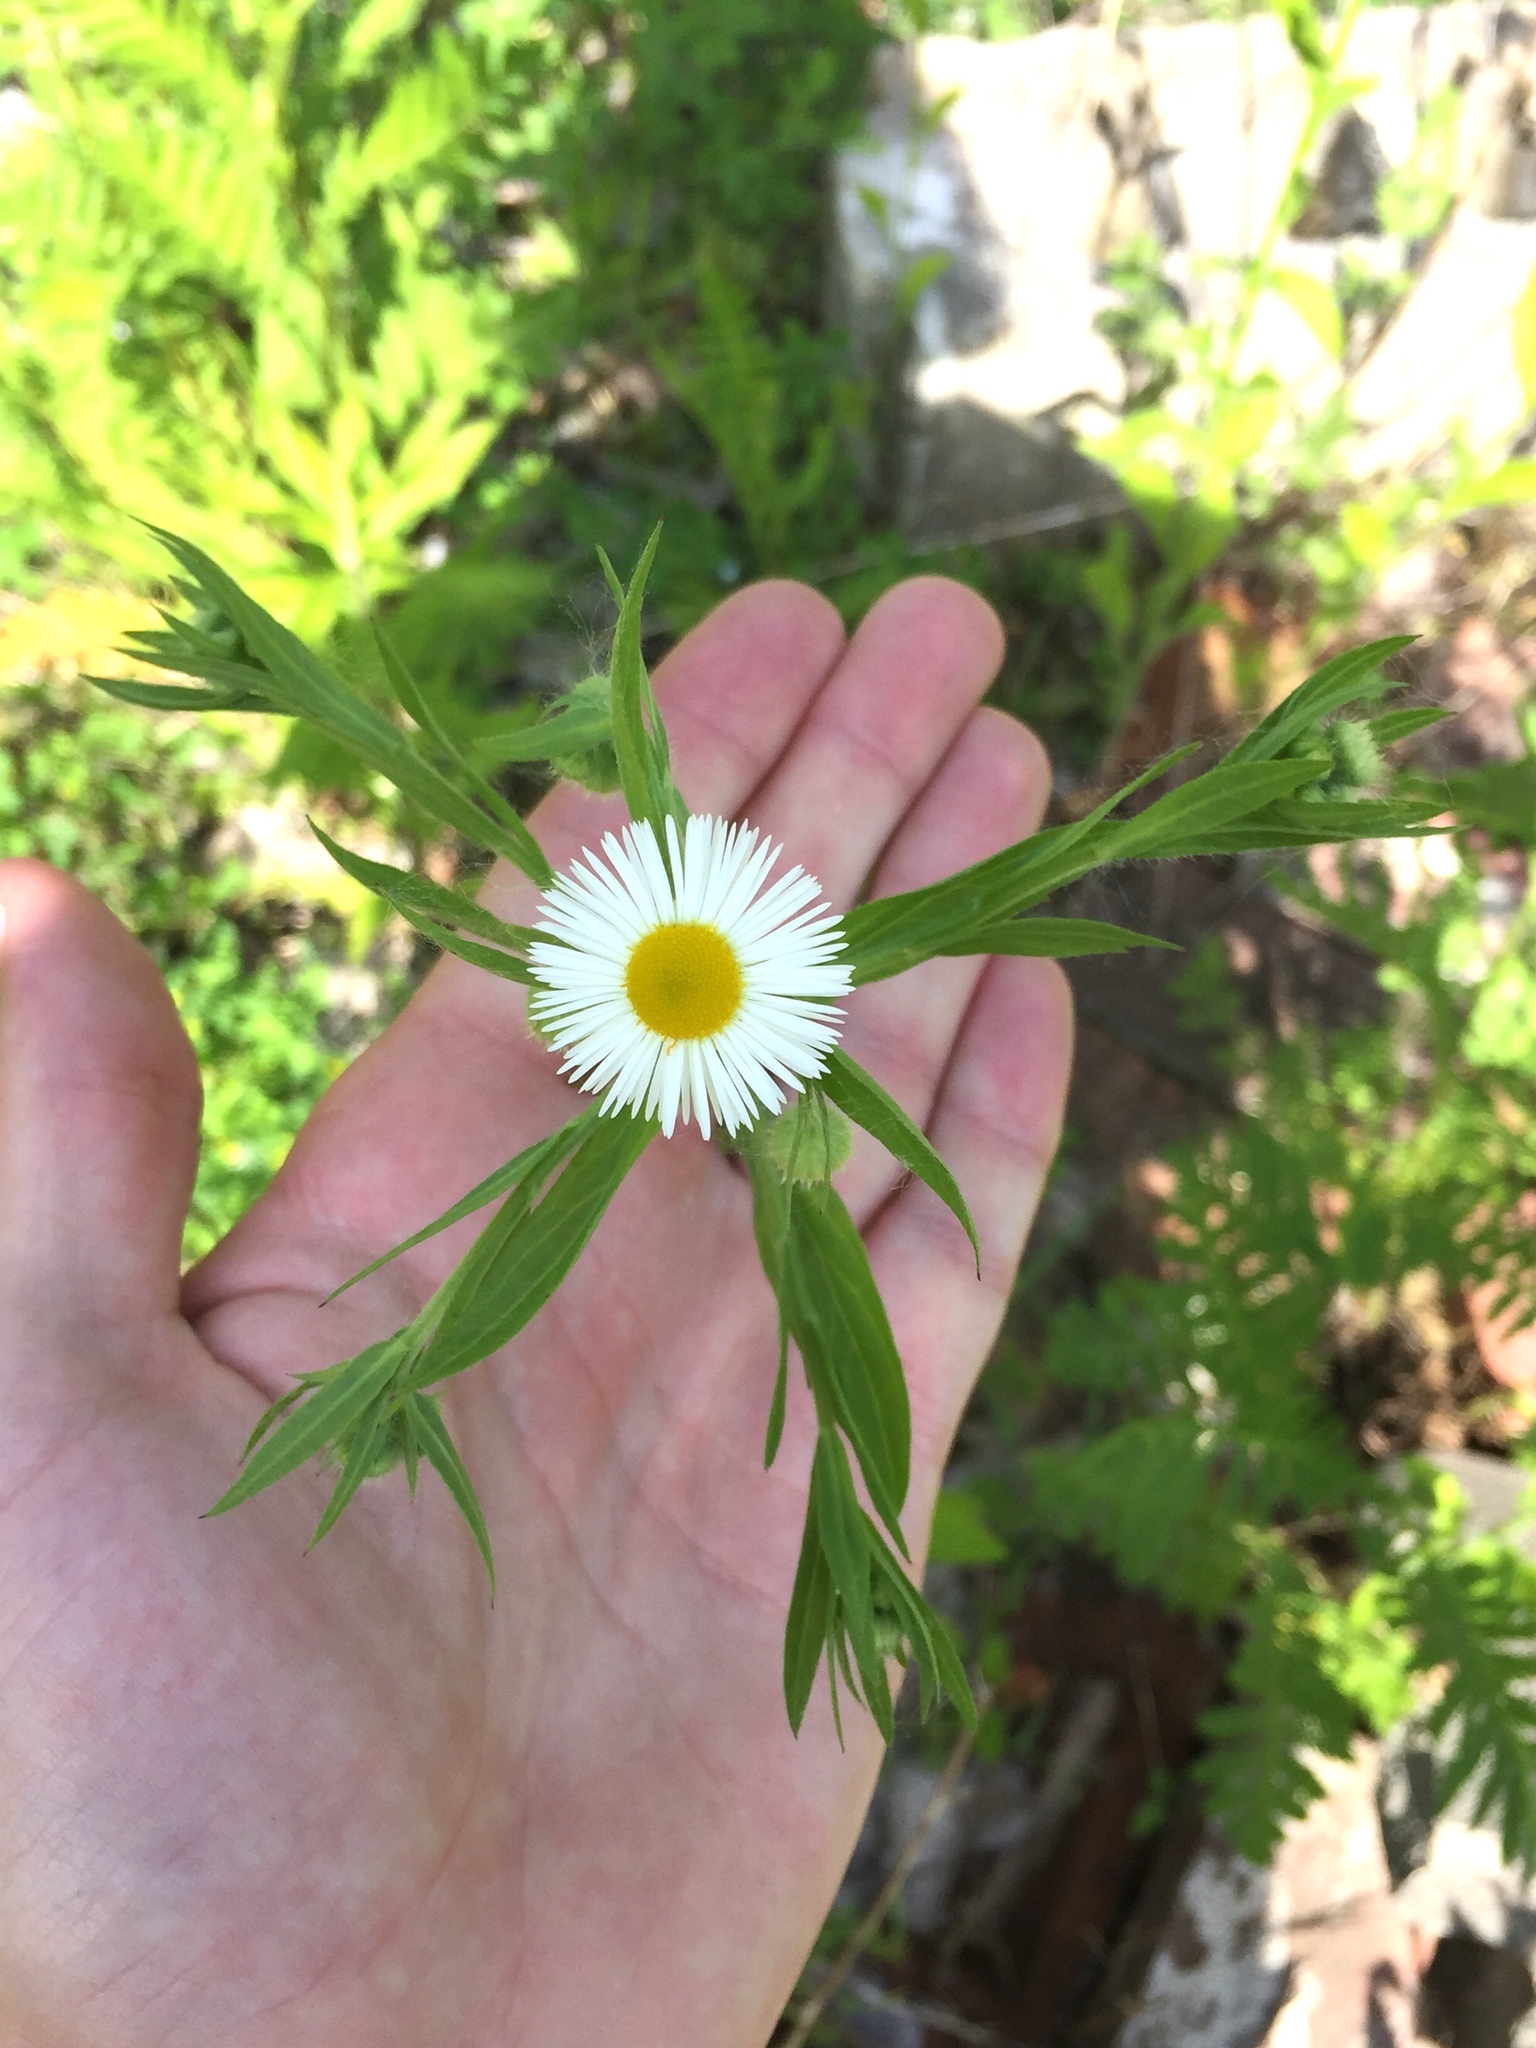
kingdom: Plantae
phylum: Tracheophyta
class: Magnoliopsida
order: Asterales
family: Asteraceae
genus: Erigeron
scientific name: Erigeron annuus
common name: Tall fleabane
